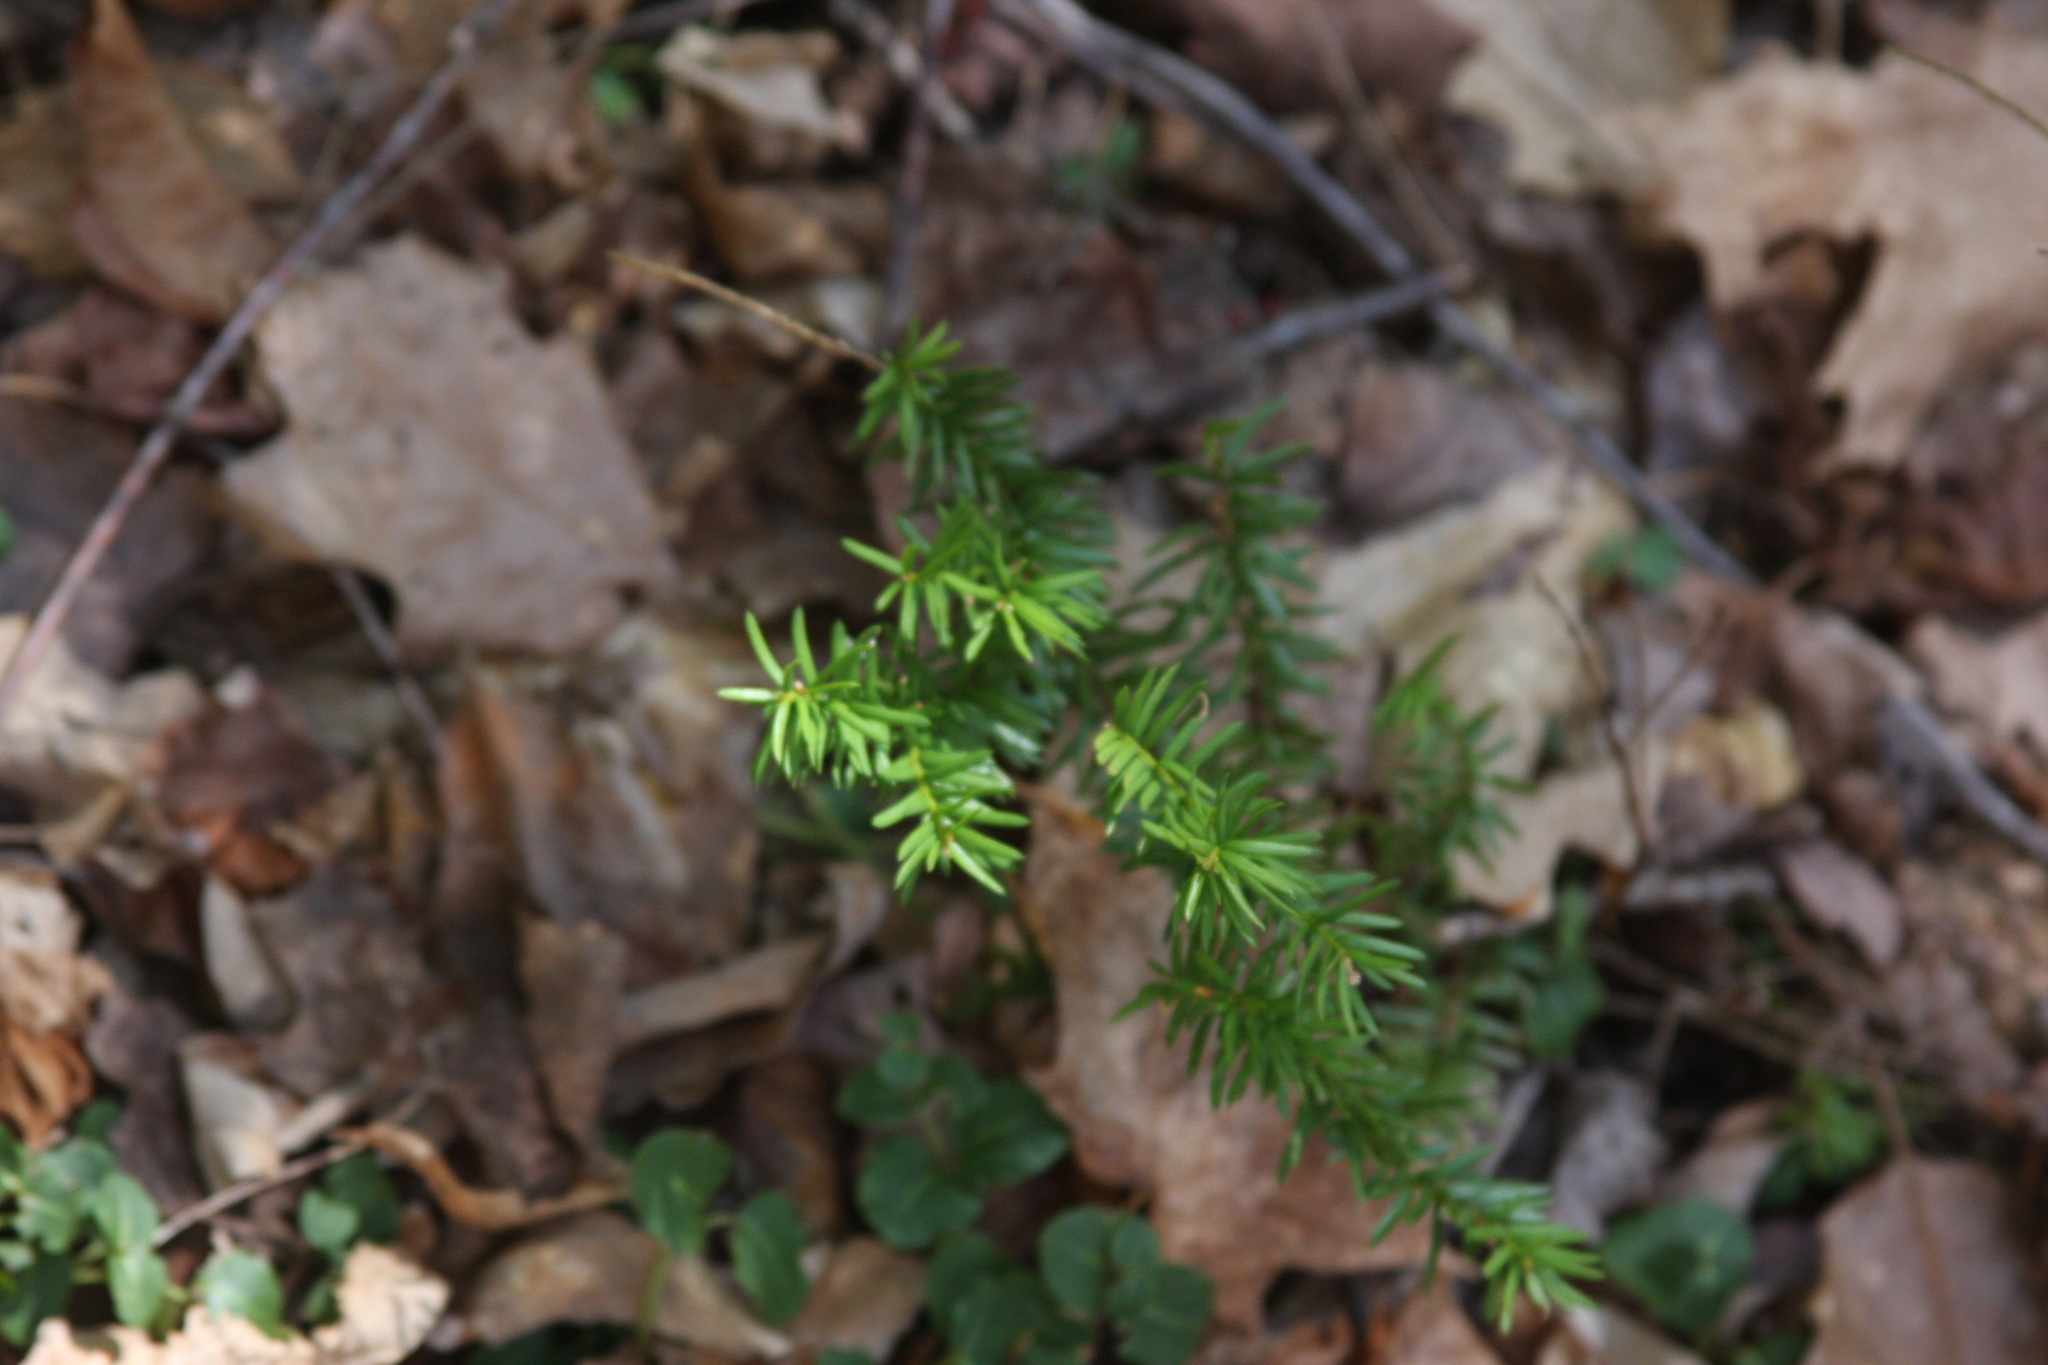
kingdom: Plantae
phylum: Tracheophyta
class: Pinopsida
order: Pinales
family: Pinaceae
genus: Tsuga
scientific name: Tsuga canadensis
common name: Eastern hemlock
